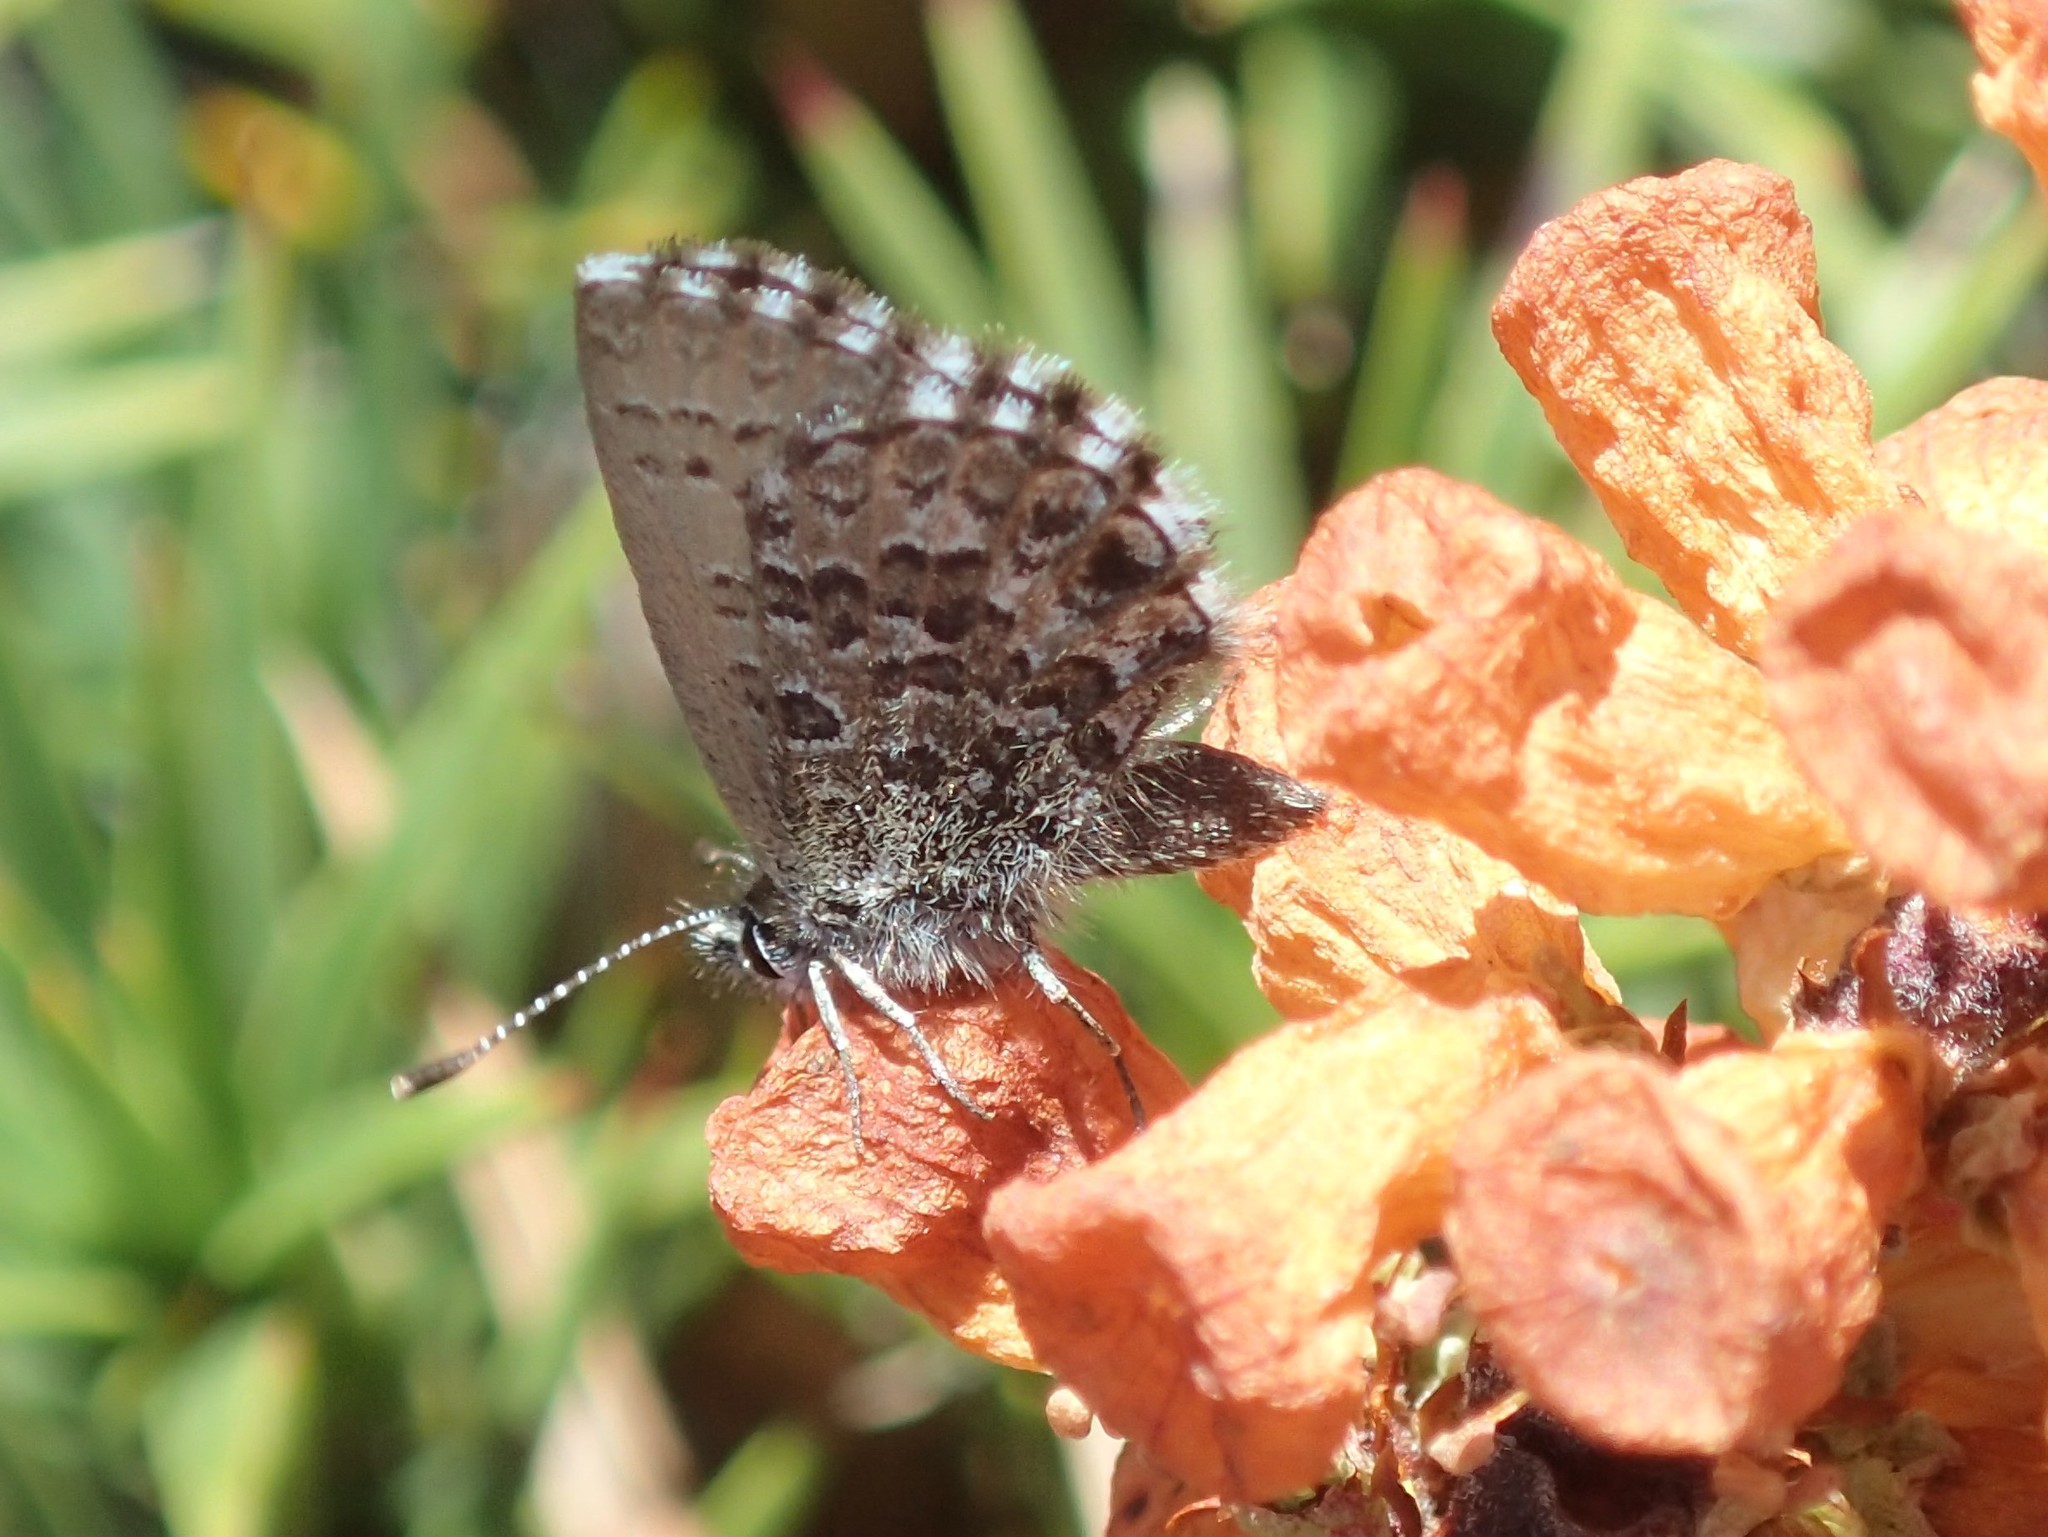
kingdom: Animalia
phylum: Arthropoda
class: Insecta
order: Lepidoptera
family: Lycaenidae
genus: Neolucia
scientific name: Neolucia hobartensis
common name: Mountain blue
